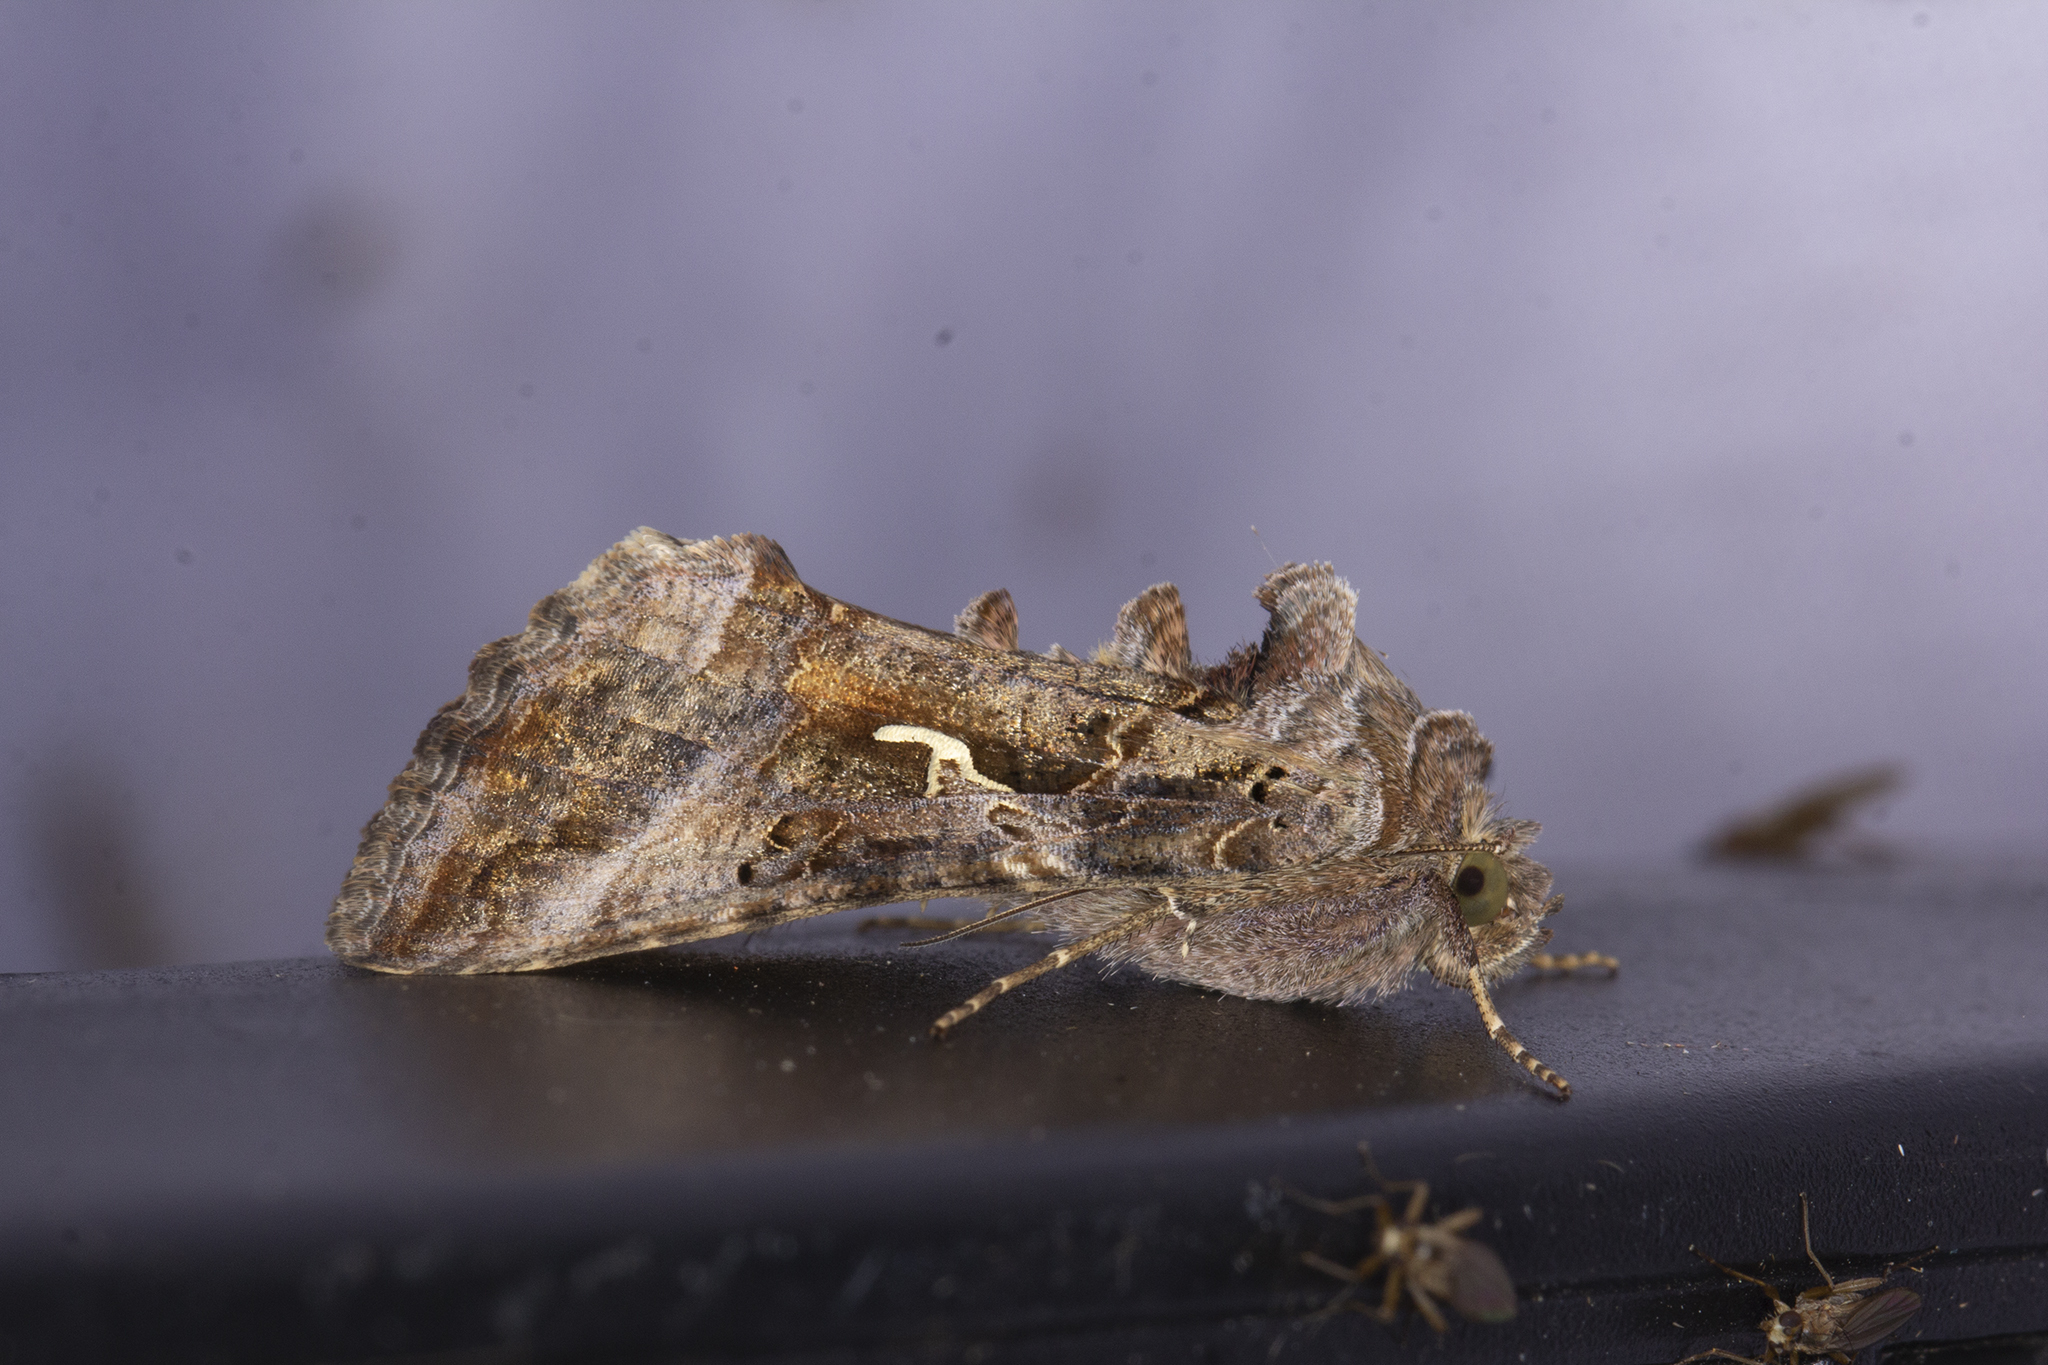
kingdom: Animalia
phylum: Arthropoda
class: Insecta
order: Lepidoptera
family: Noctuidae
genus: Autographa
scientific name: Autographa gamma
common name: Silver y
